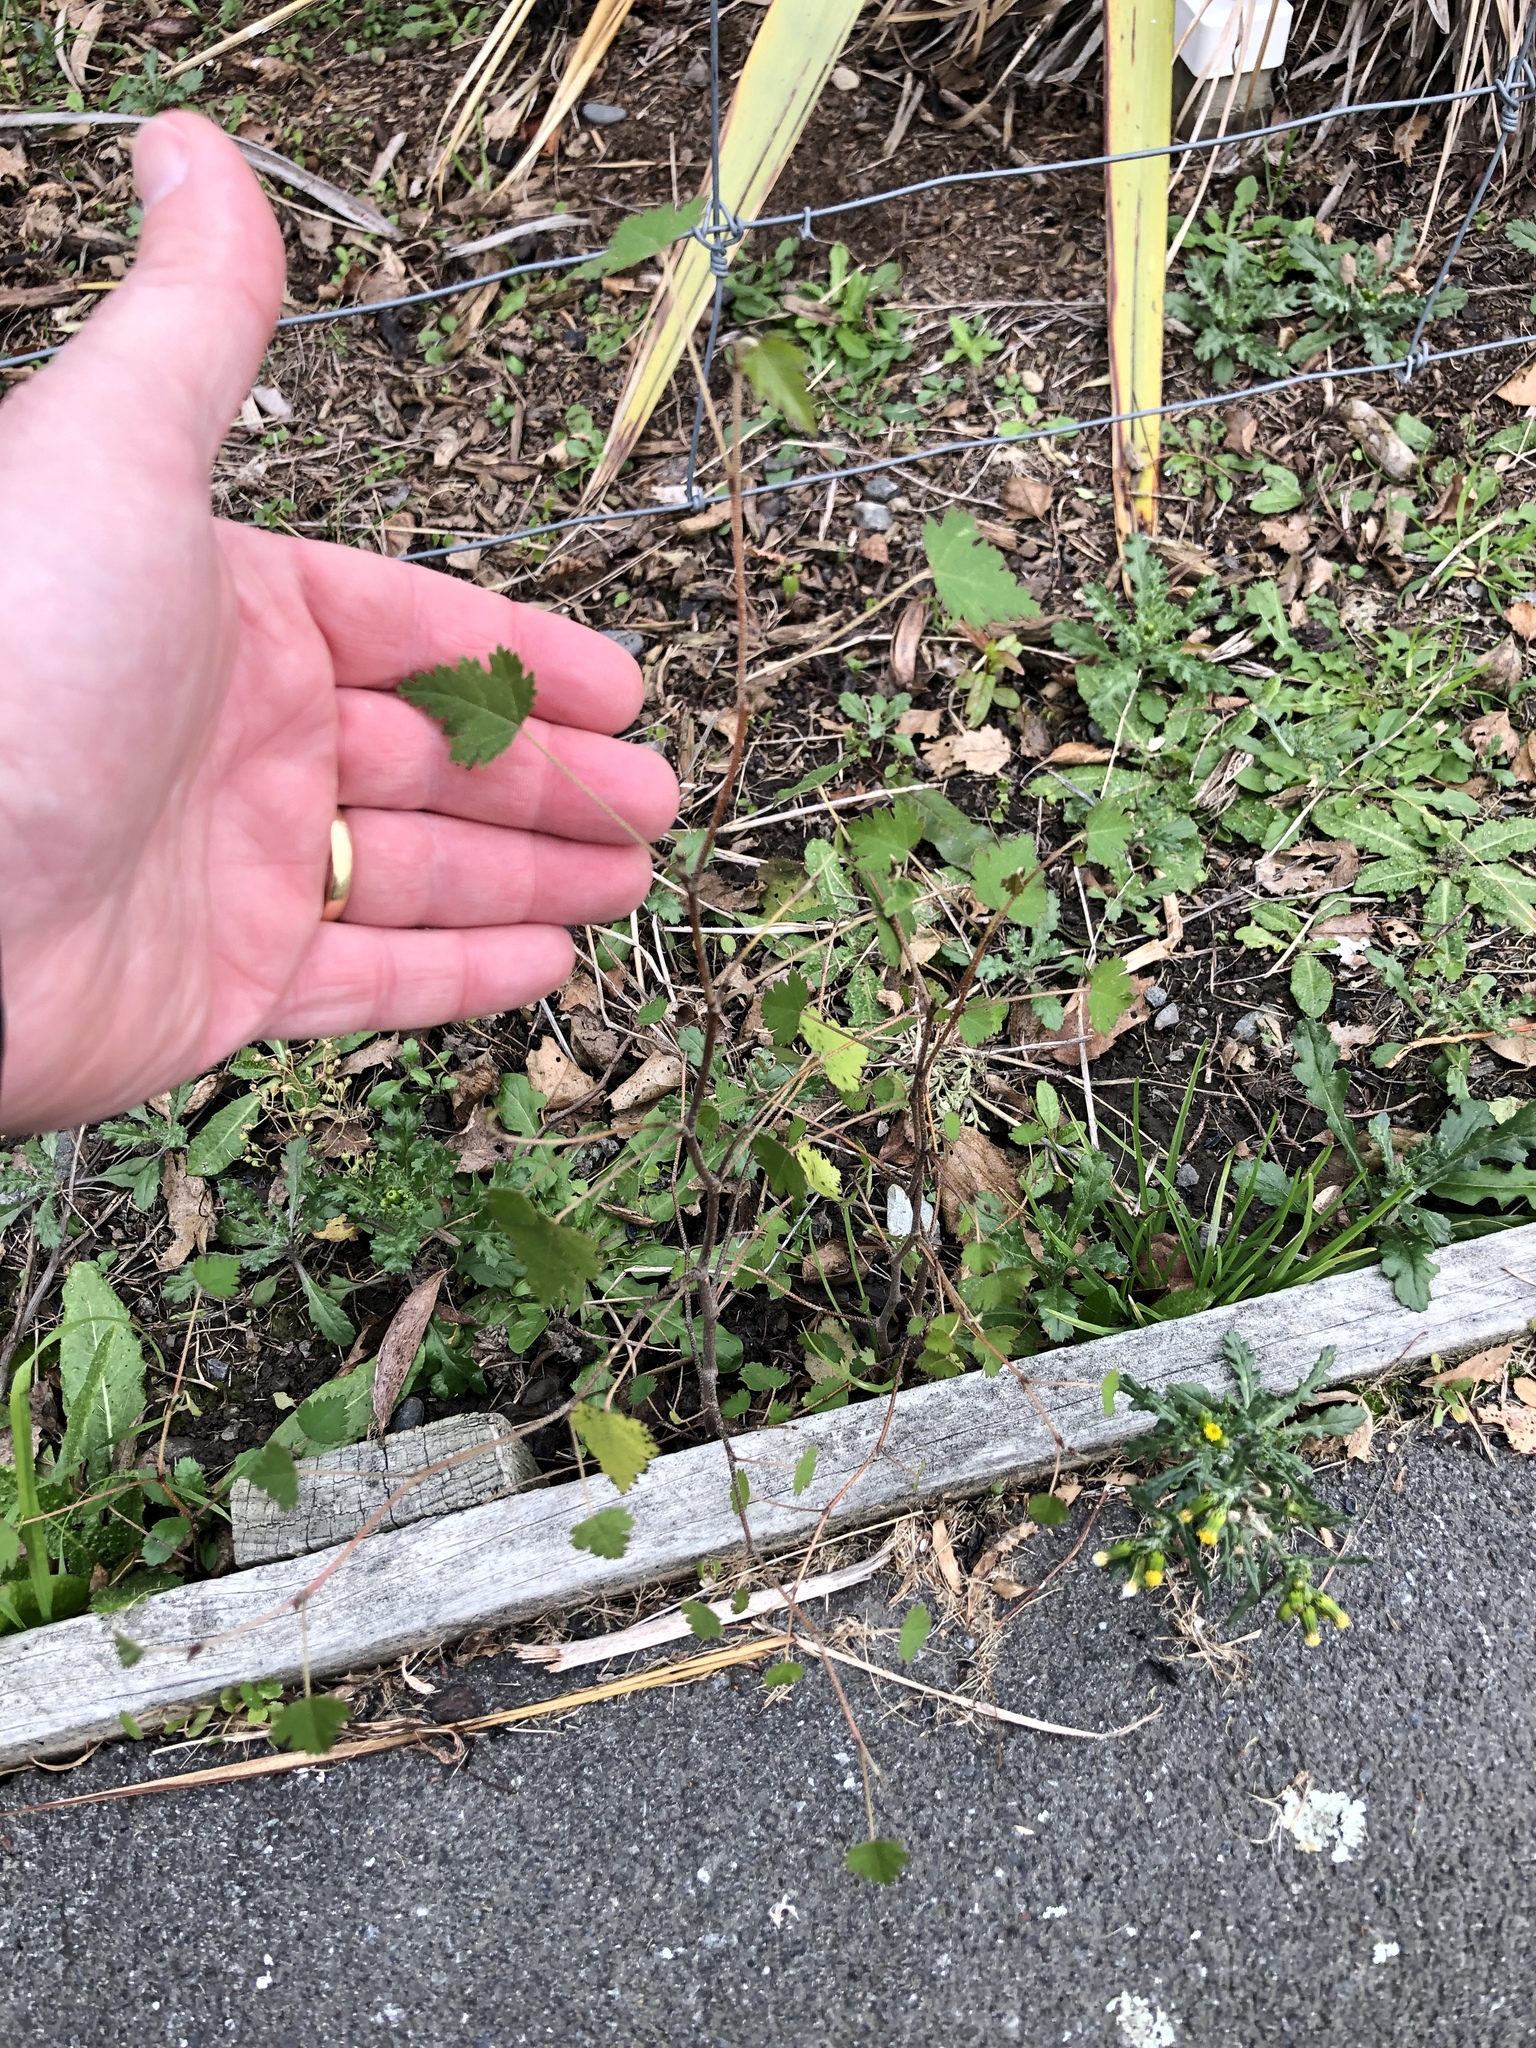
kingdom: Plantae
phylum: Tracheophyta
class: Magnoliopsida
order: Malvales
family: Malvaceae
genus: Plagianthus
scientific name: Plagianthus regius
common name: Manatu
